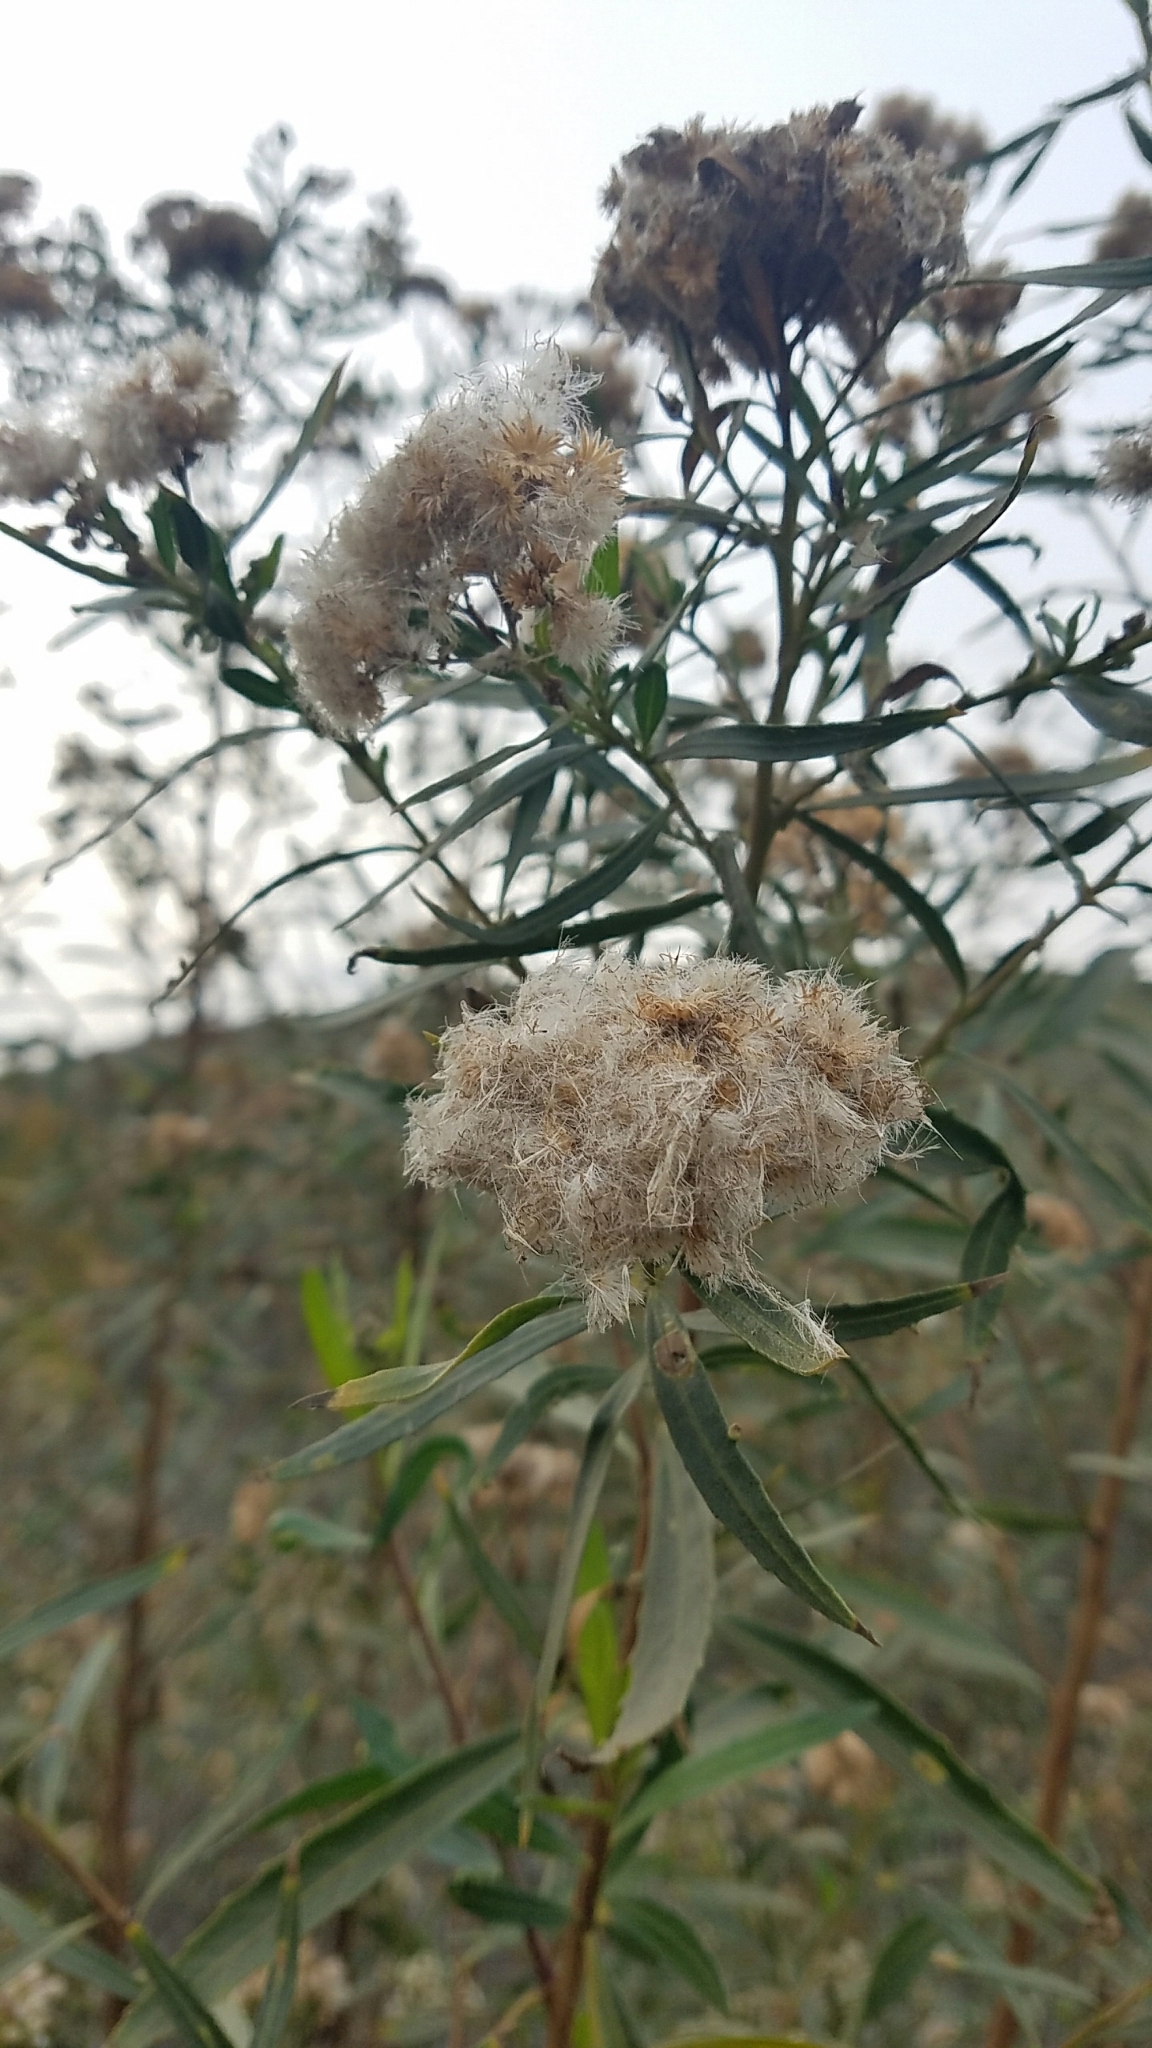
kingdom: Plantae
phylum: Tracheophyta
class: Magnoliopsida
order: Asterales
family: Asteraceae
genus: Baccharis
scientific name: Baccharis salicifolia
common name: Sticky baccharis
